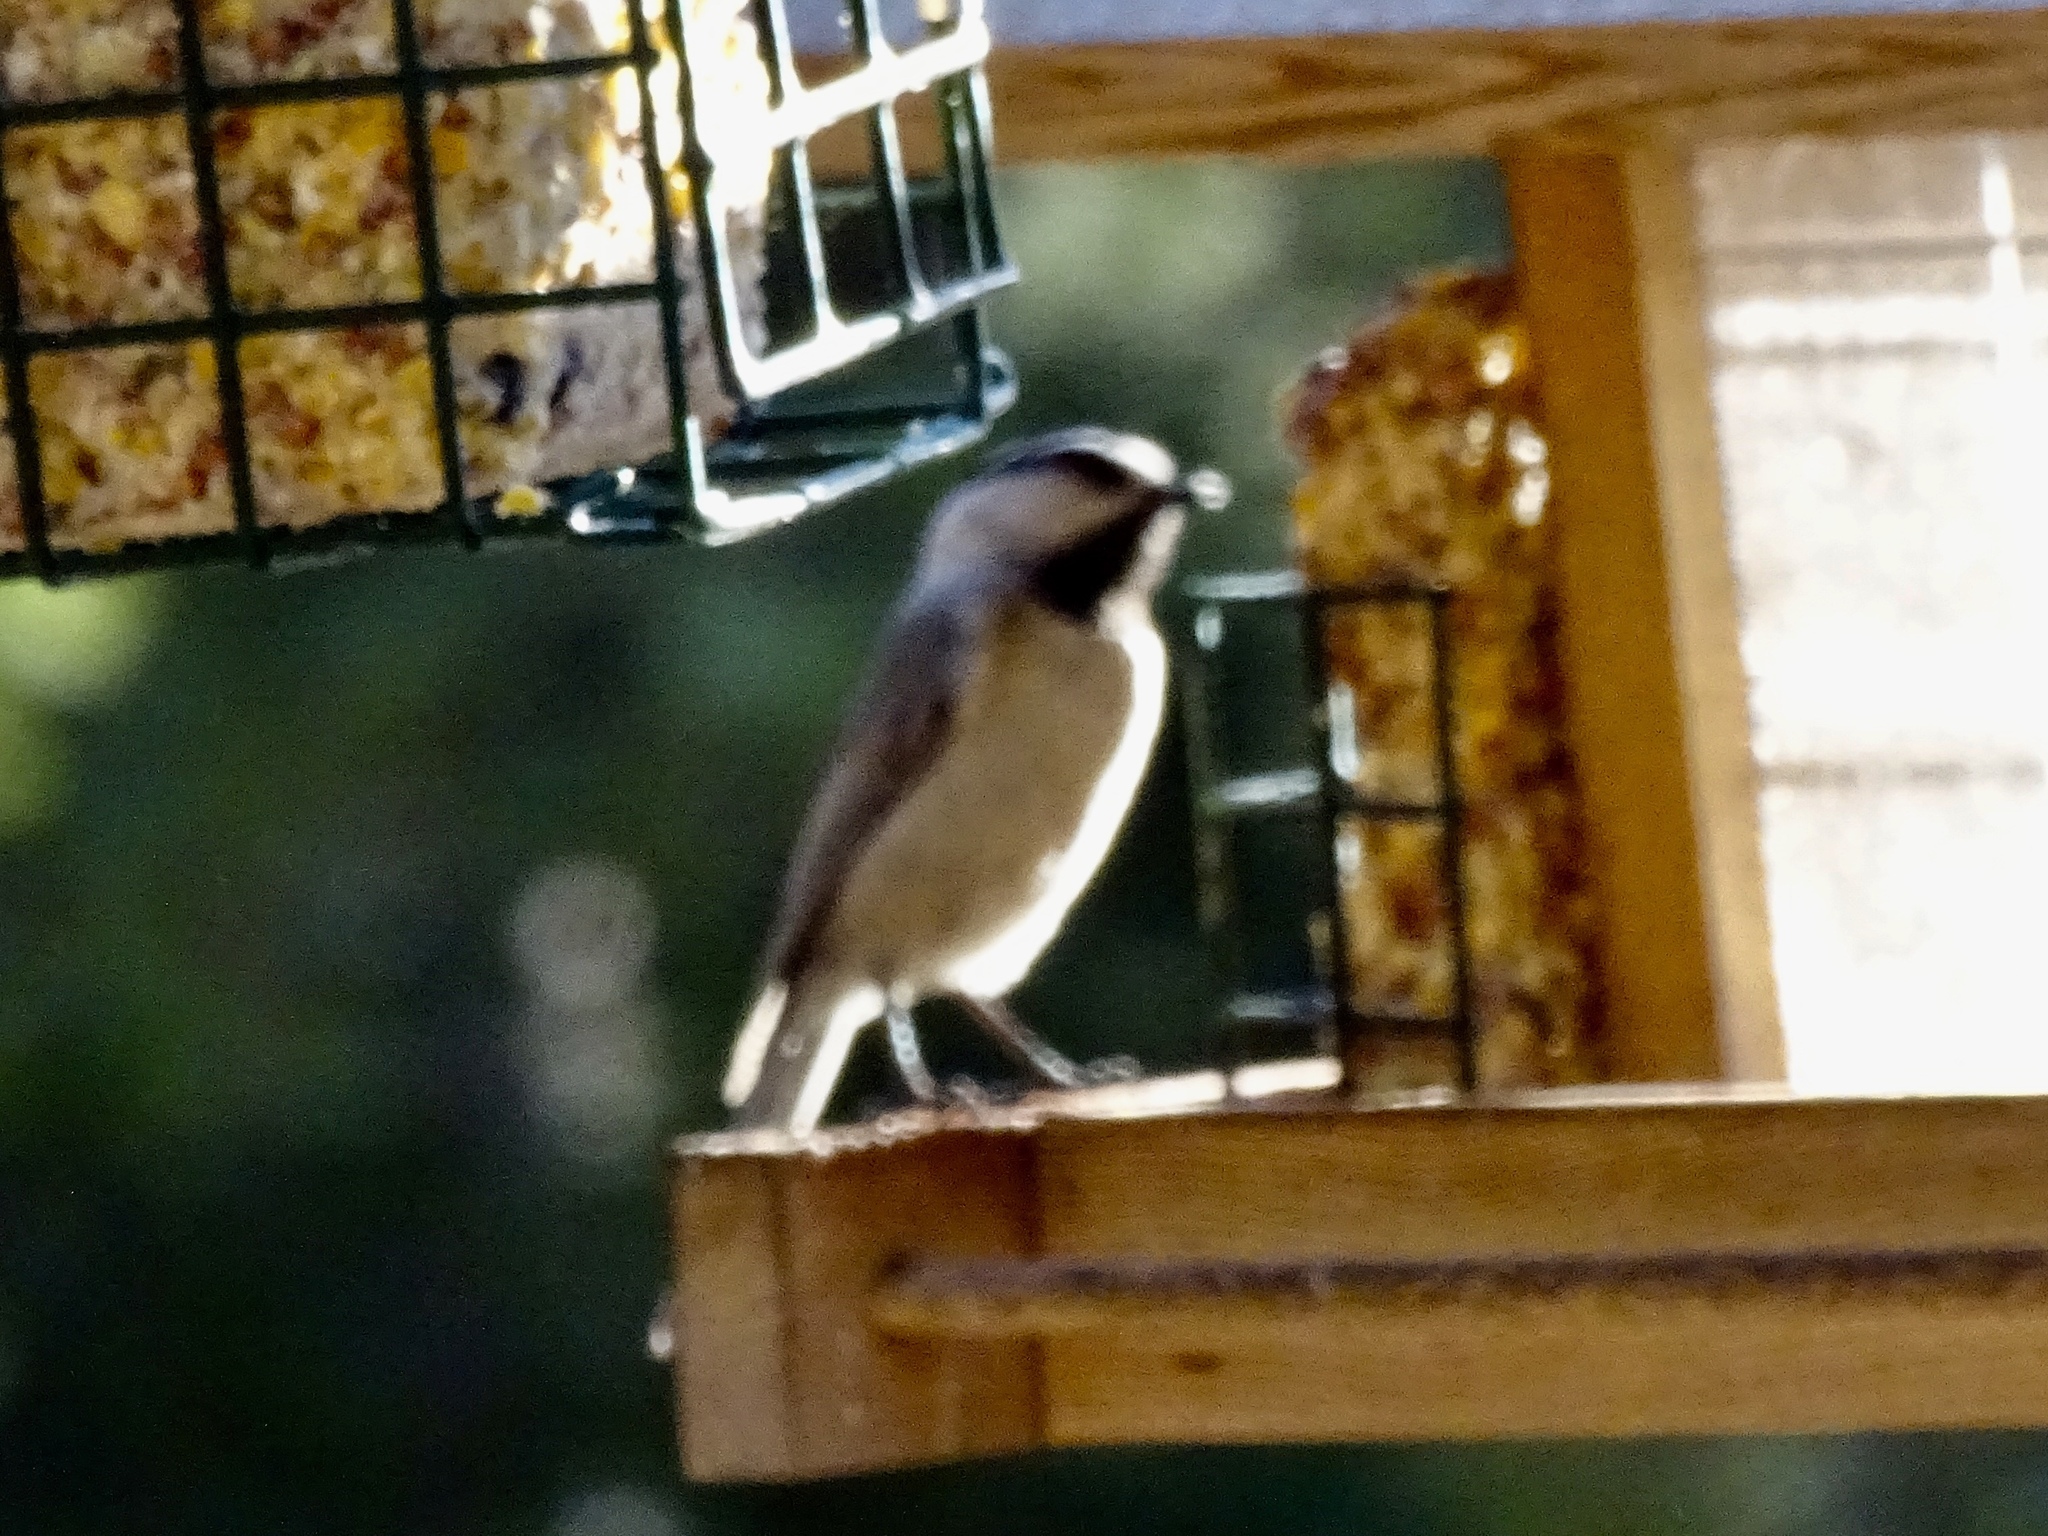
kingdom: Animalia
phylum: Chordata
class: Aves
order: Passeriformes
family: Paridae
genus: Poecile
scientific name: Poecile gambeli
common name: Mountain chickadee
